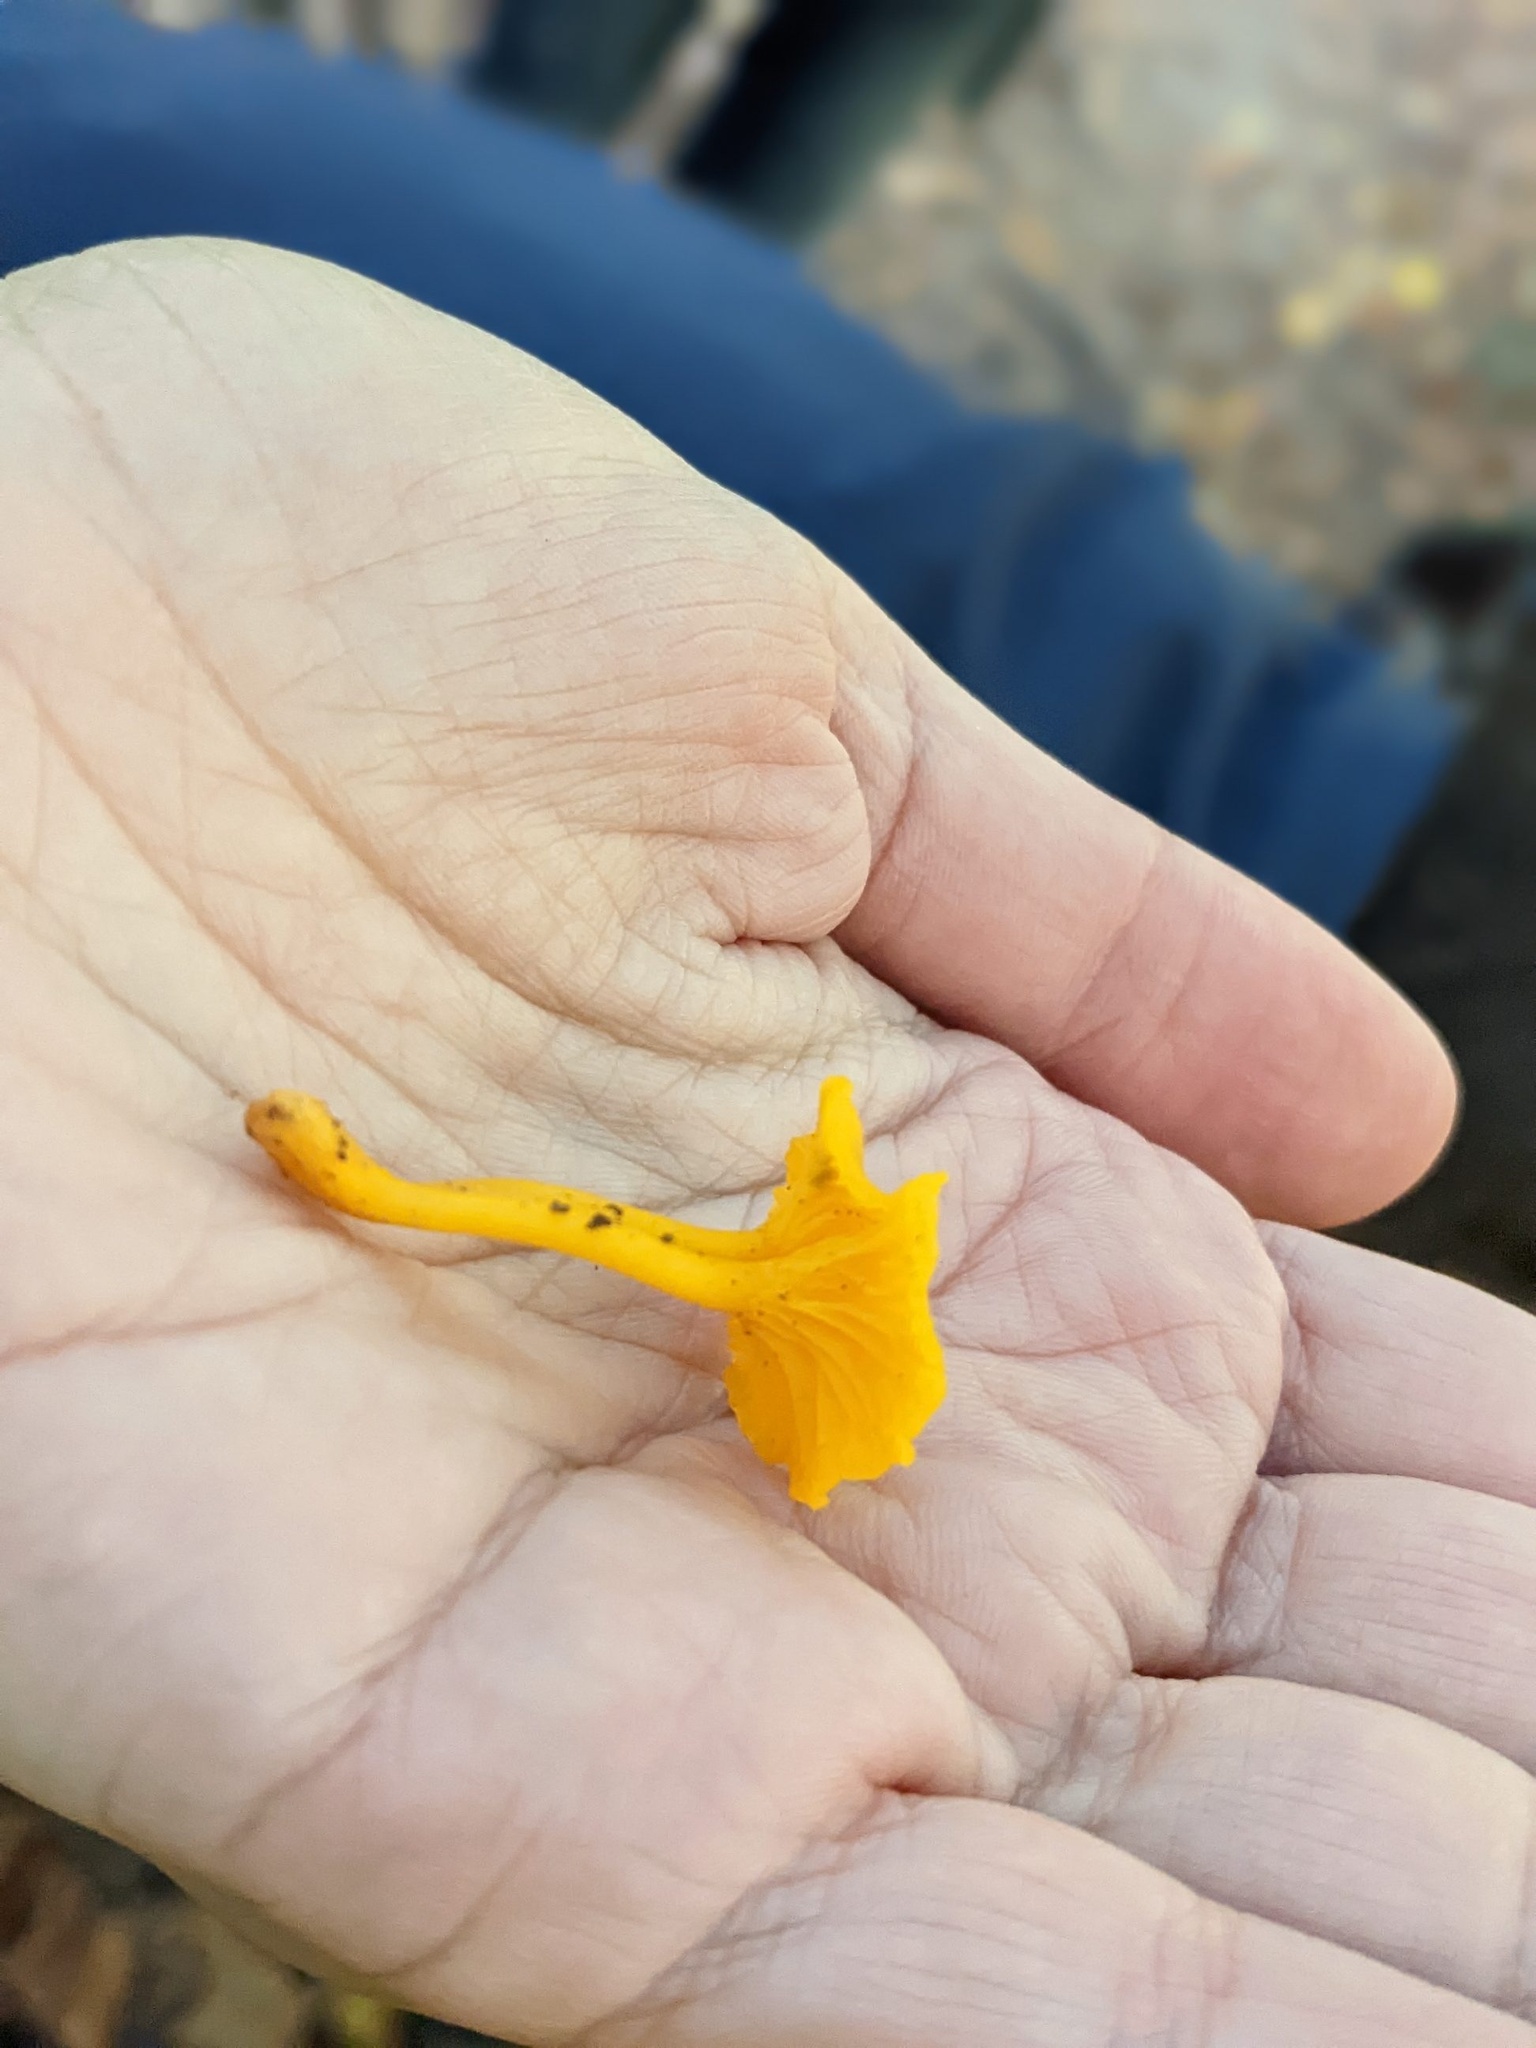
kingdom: Fungi
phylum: Basidiomycota
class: Agaricomycetes
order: Cantharellales
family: Hydnaceae
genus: Cantharellus
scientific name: Cantharellus minor
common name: Small chanterelle
